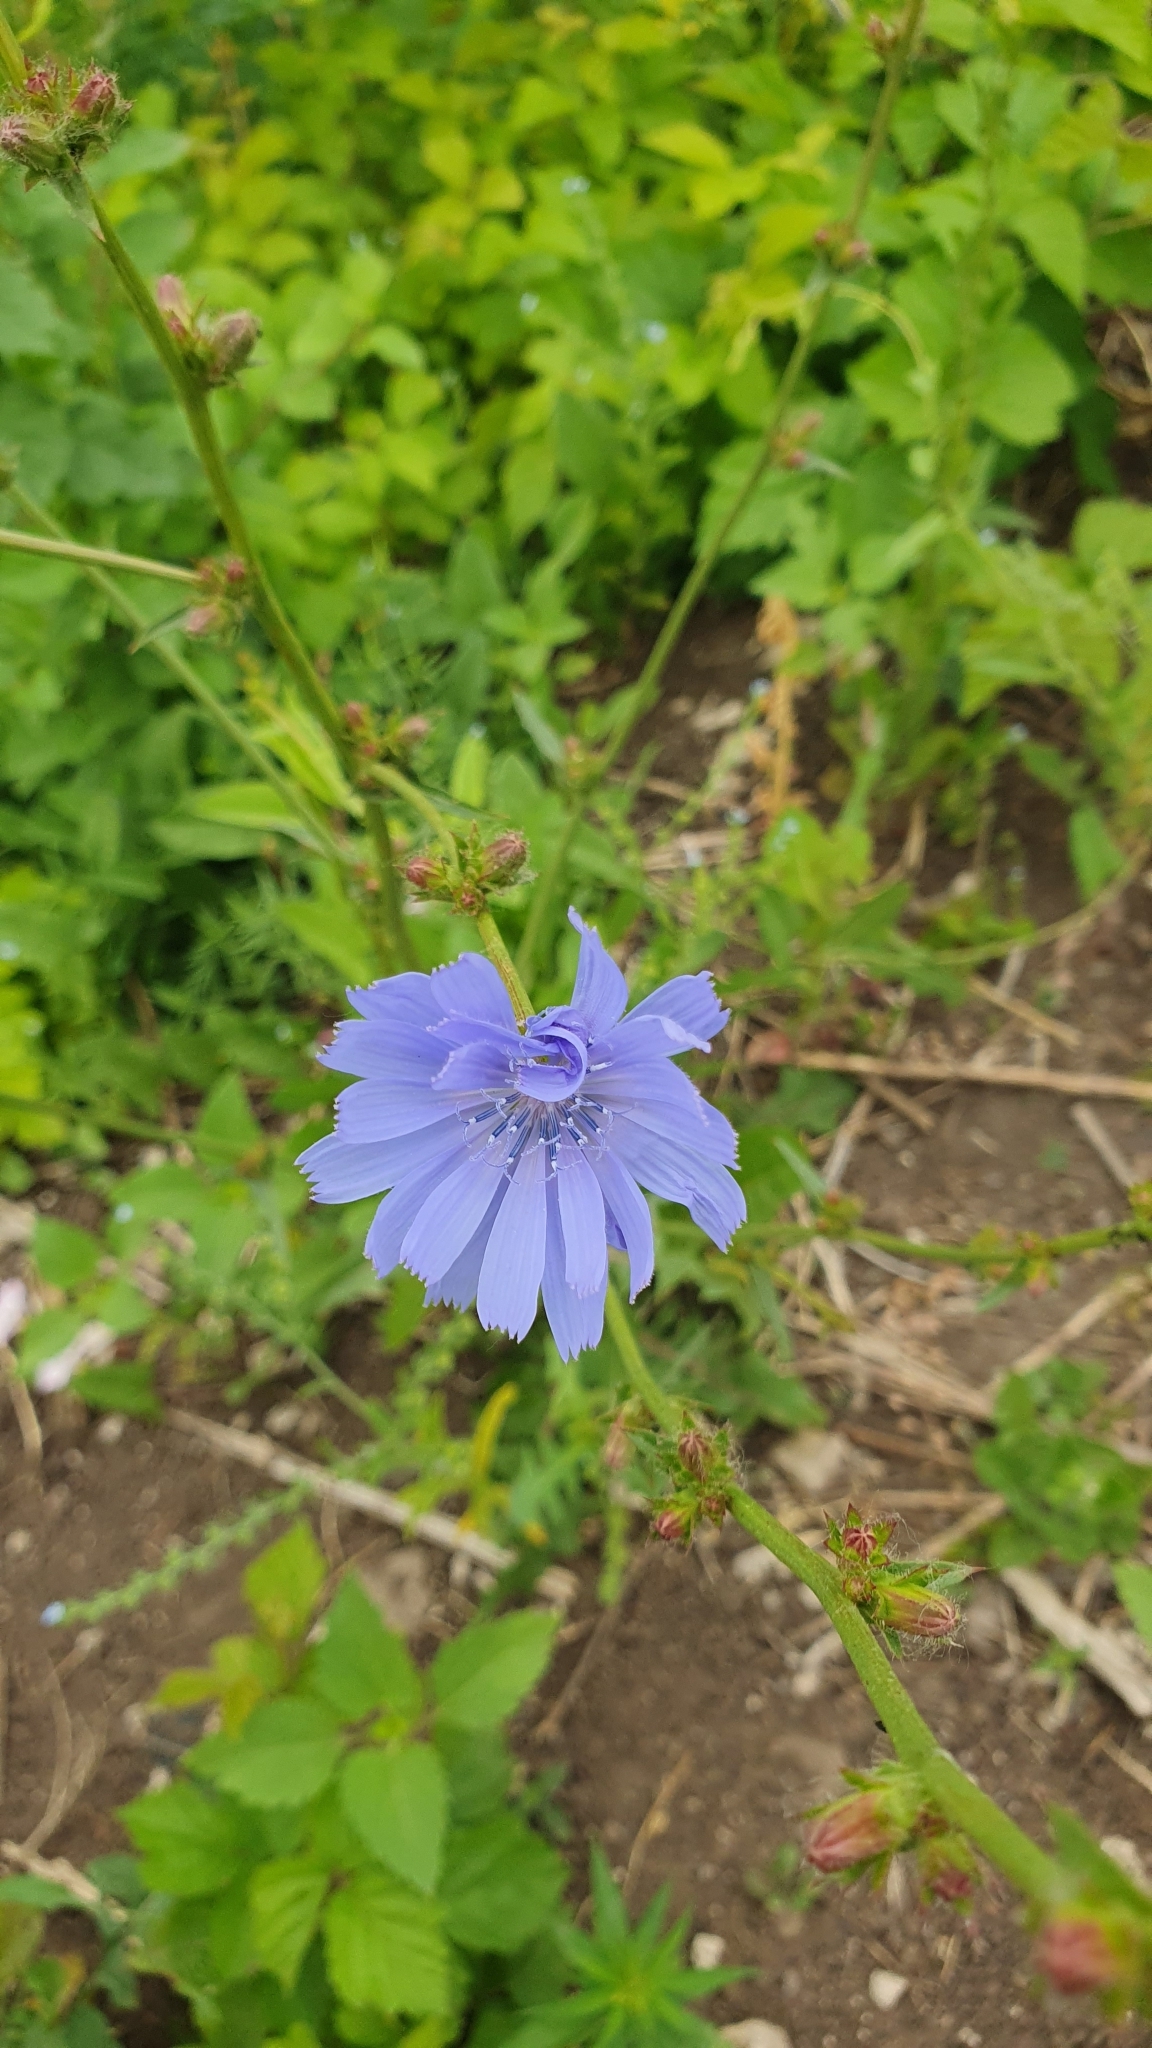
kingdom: Plantae
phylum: Tracheophyta
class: Magnoliopsida
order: Asterales
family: Asteraceae
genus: Cichorium
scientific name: Cichorium intybus
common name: Chicory
